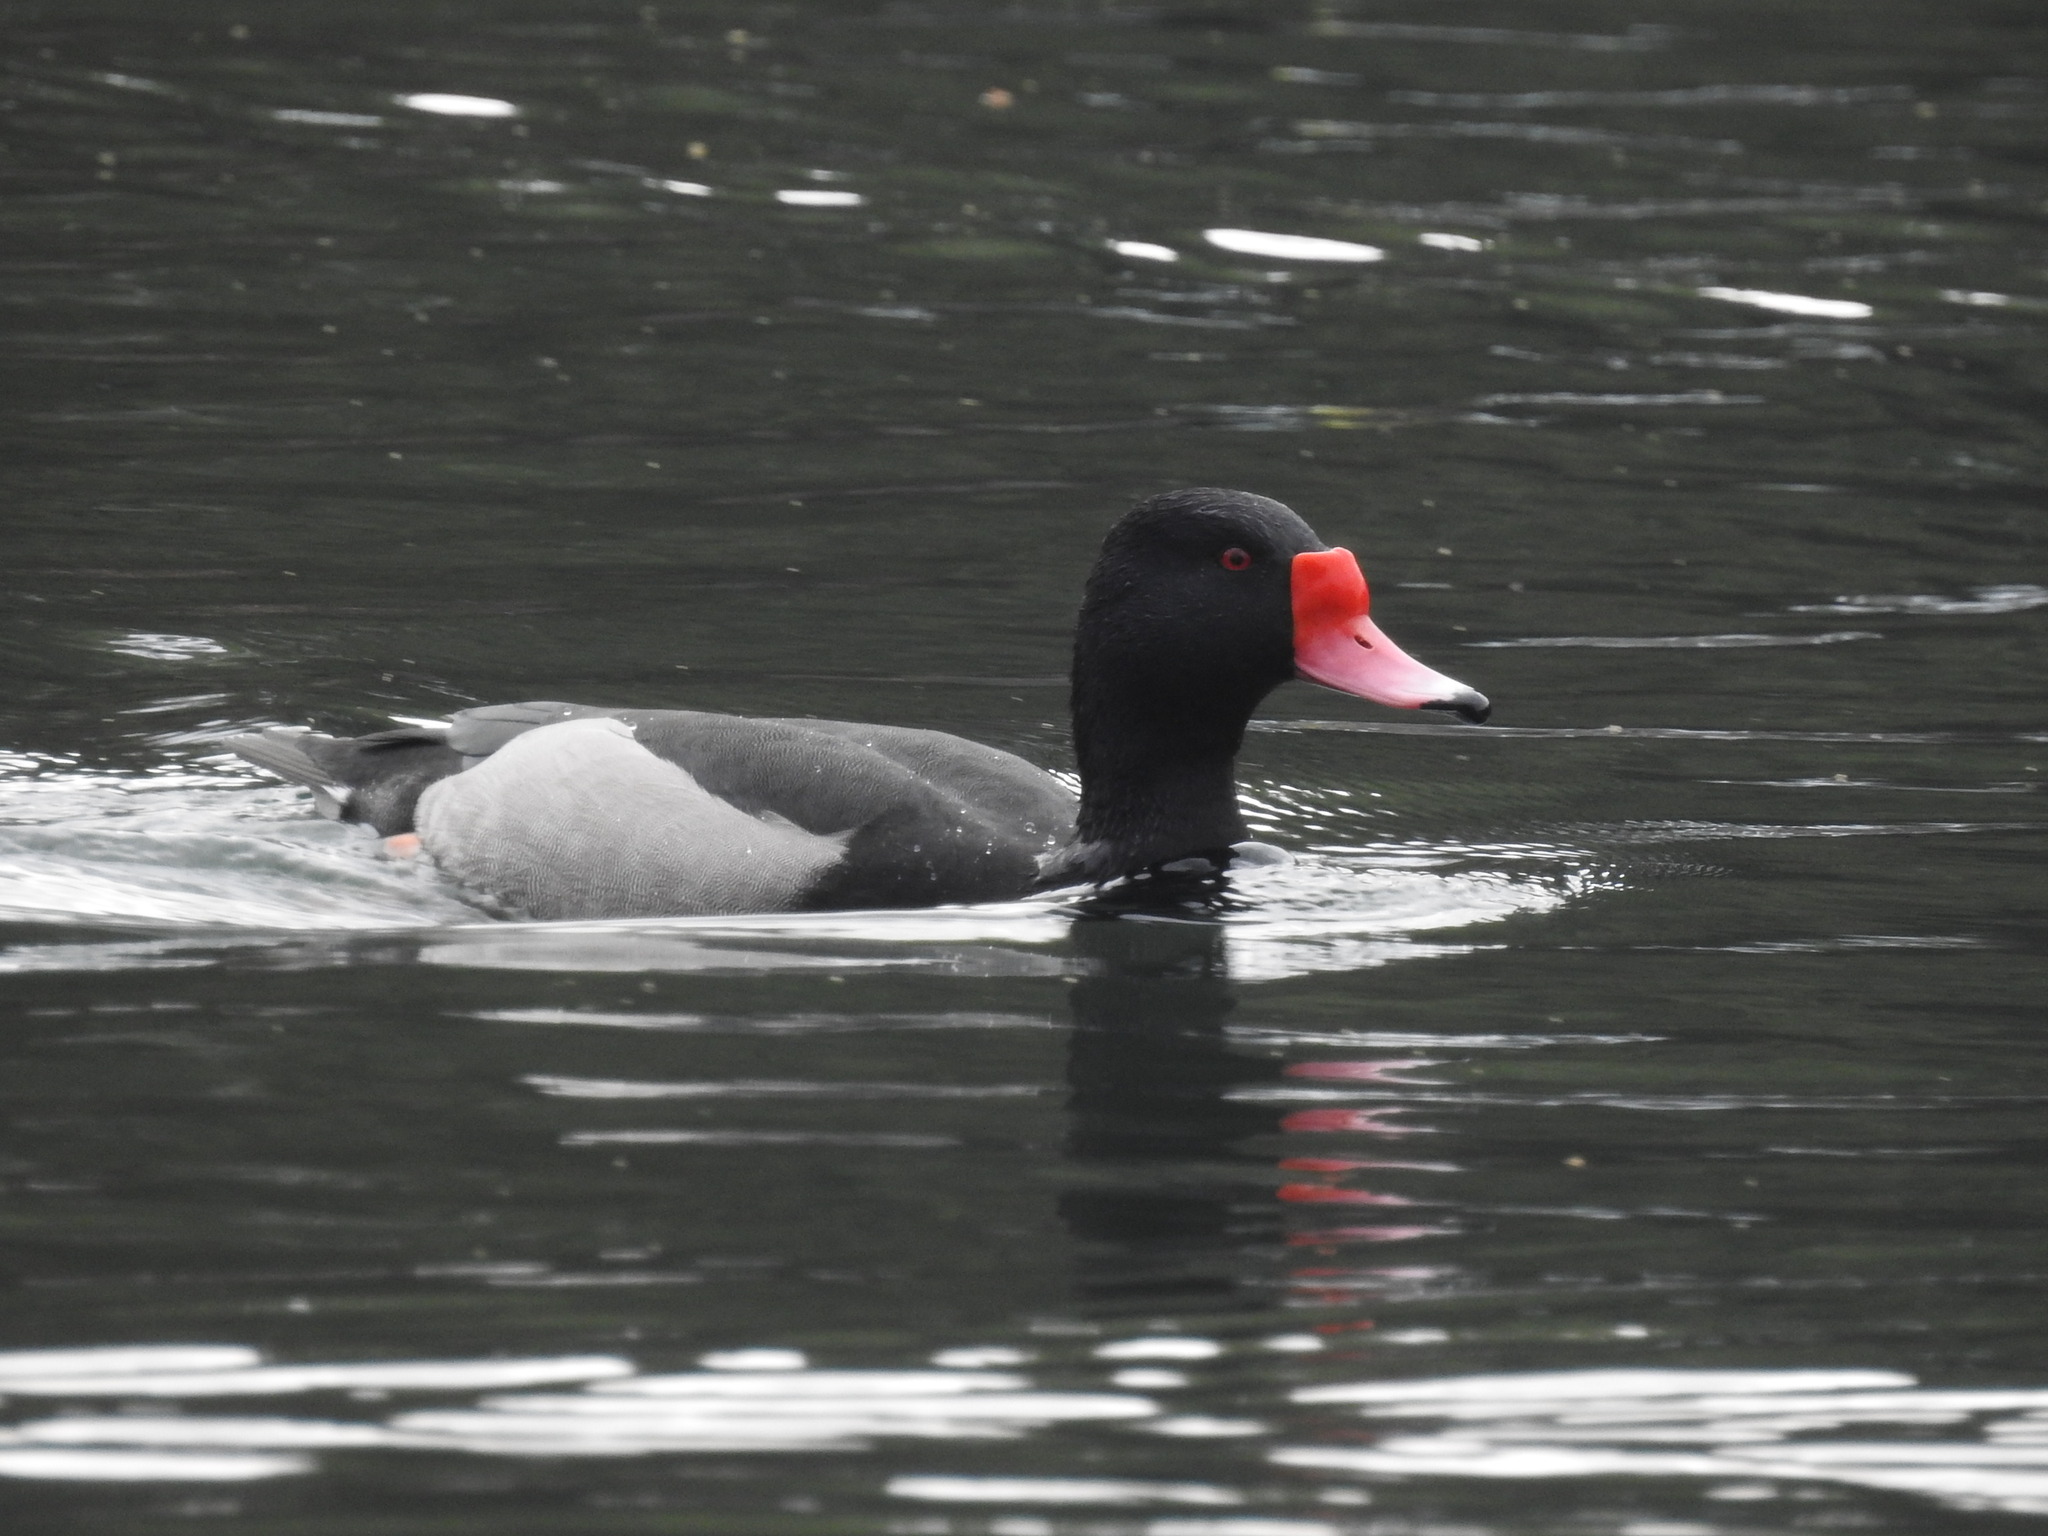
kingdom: Animalia
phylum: Chordata
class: Aves
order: Anseriformes
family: Anatidae
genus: Netta
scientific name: Netta peposaca
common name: Rosy-billed pochard
